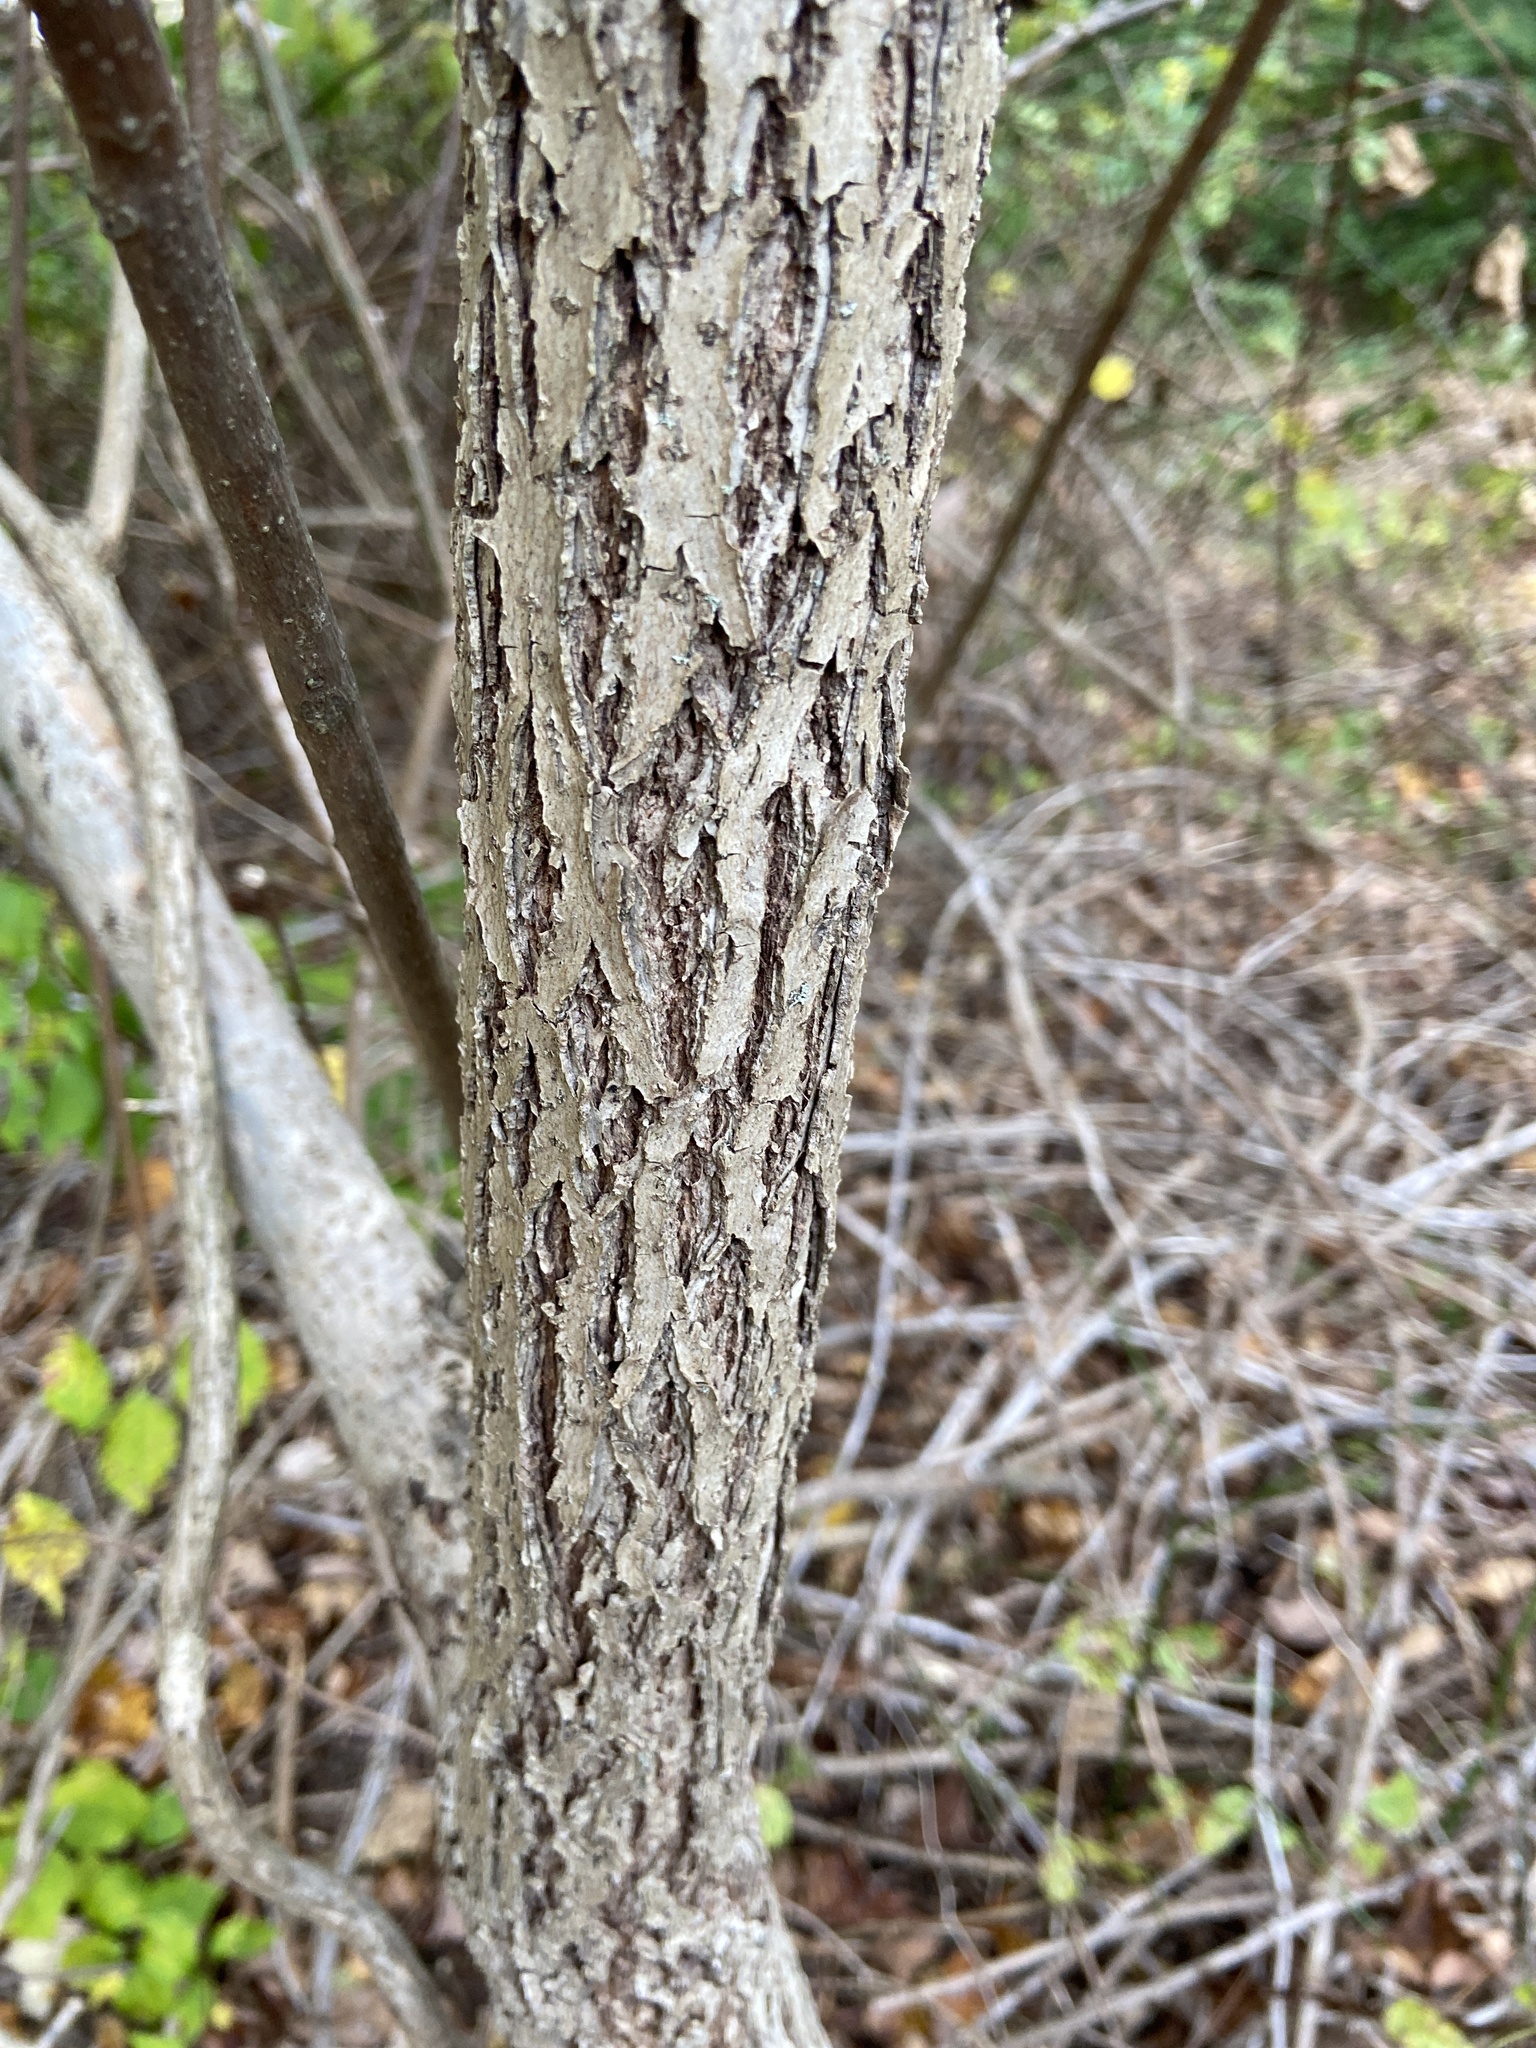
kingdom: Plantae
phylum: Tracheophyta
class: Magnoliopsida
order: Fagales
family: Juglandaceae
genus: Juglans
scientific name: Juglans nigra
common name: Black walnut
